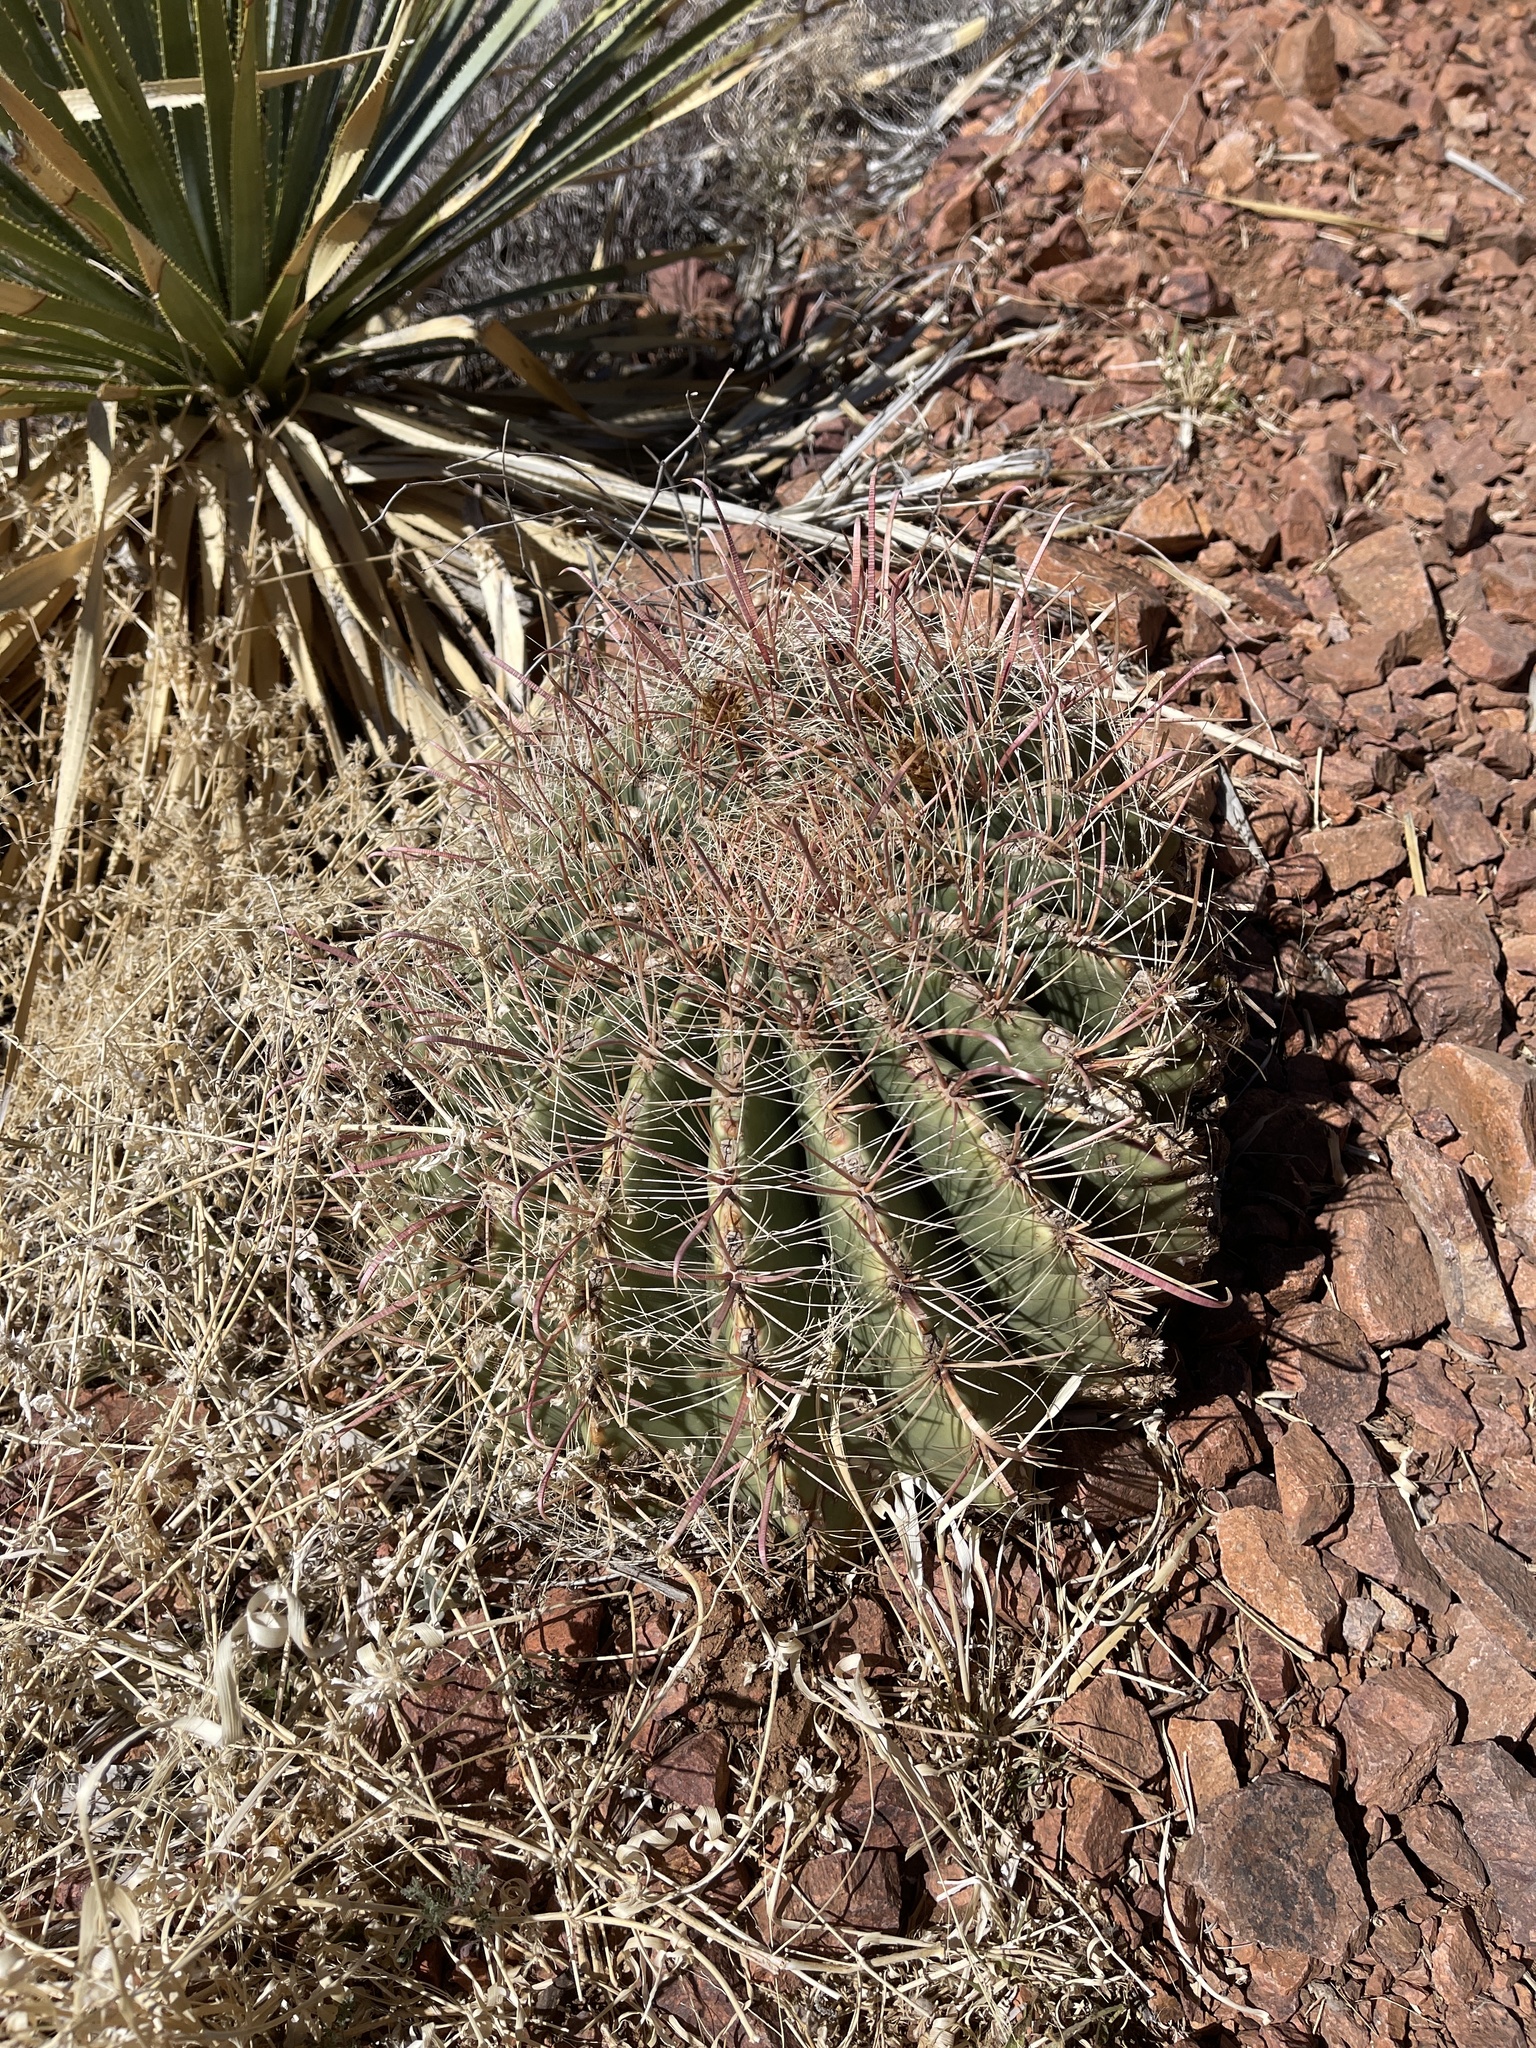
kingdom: Plantae
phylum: Tracheophyta
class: Magnoliopsida
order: Caryophyllales
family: Cactaceae
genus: Ferocactus
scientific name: Ferocactus wislizeni
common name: Candy barrel cactus
